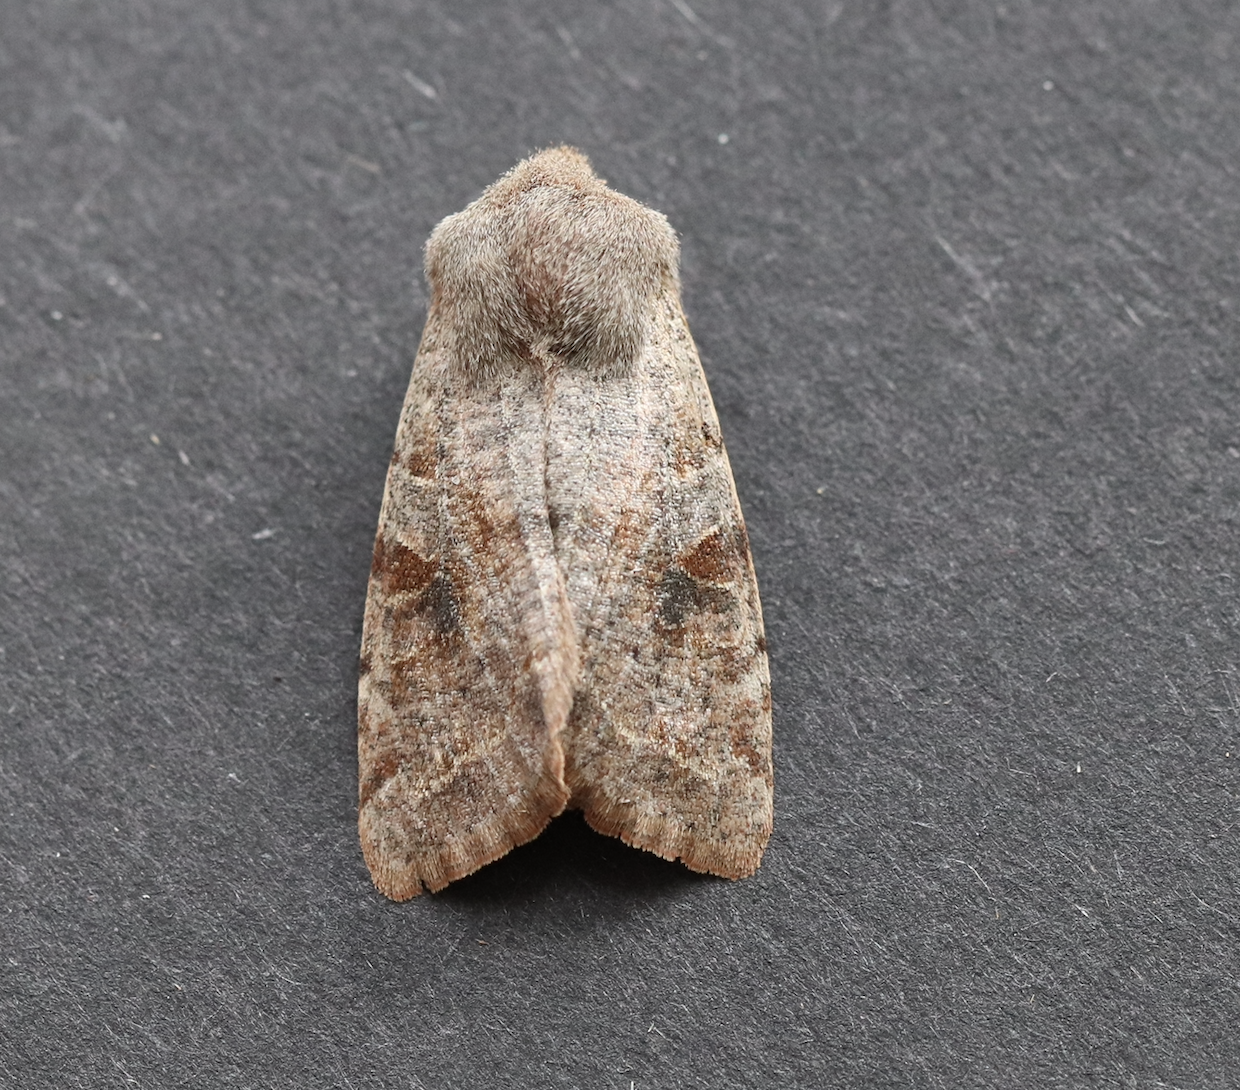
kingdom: Animalia
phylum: Arthropoda
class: Insecta
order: Lepidoptera
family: Noctuidae
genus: Orthosia
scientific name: Orthosia incerta
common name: Clouded drab
